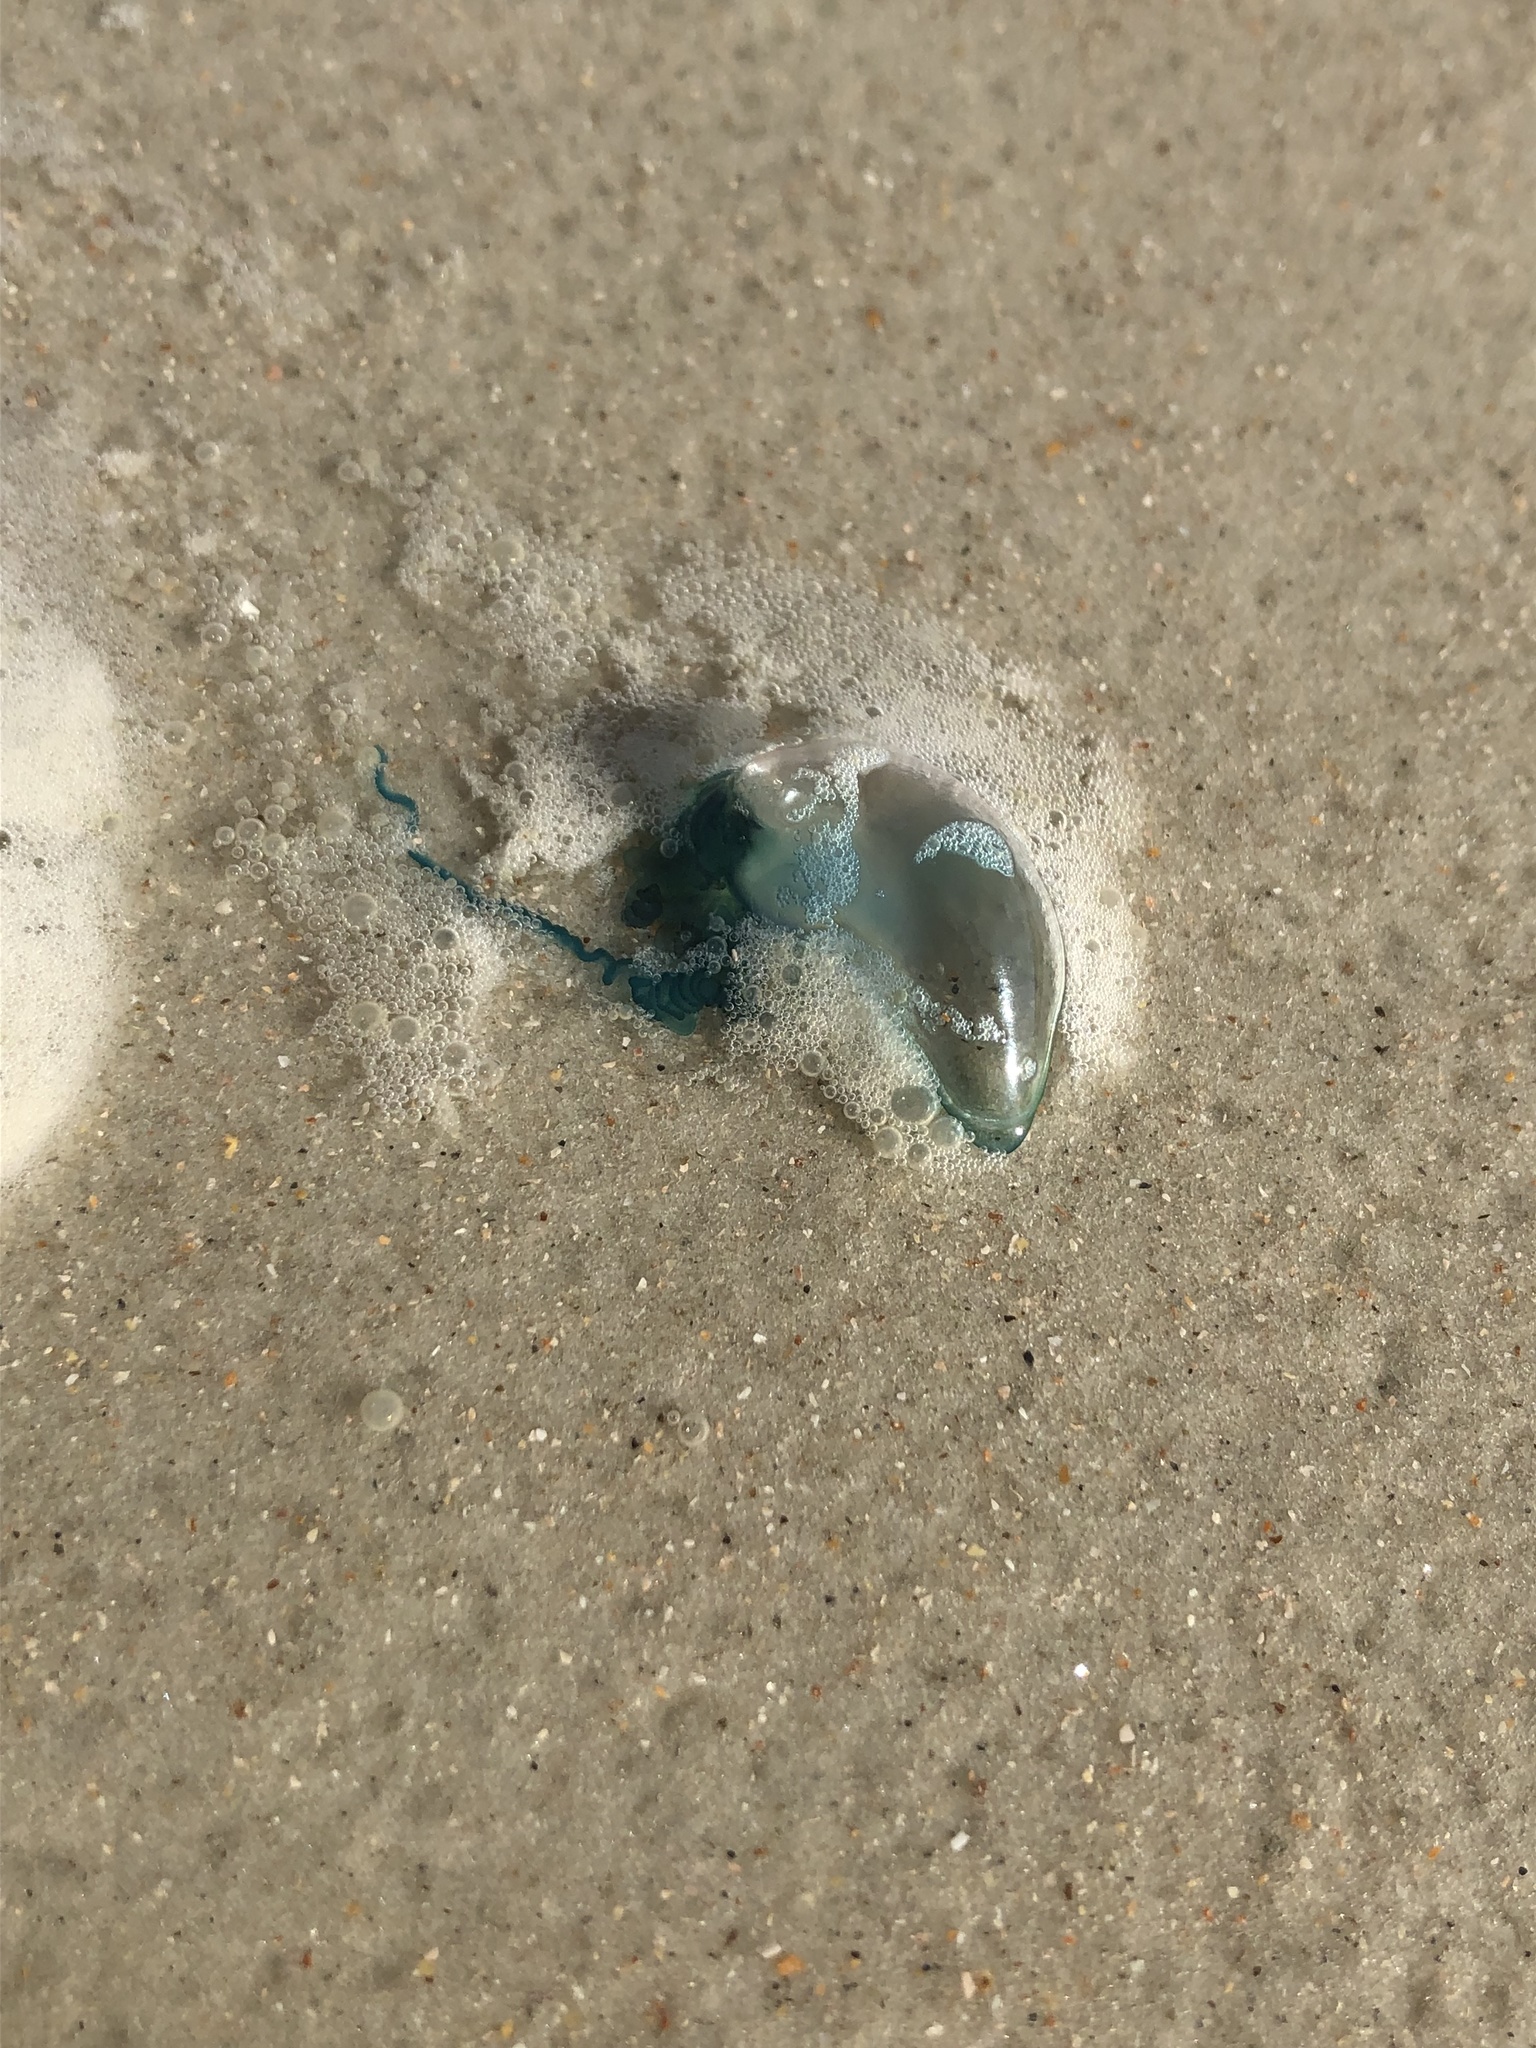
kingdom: Animalia
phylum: Cnidaria
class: Hydrozoa
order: Siphonophorae
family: Physaliidae
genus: Physalia
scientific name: Physalia physalis
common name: Portuguese man-of-war
